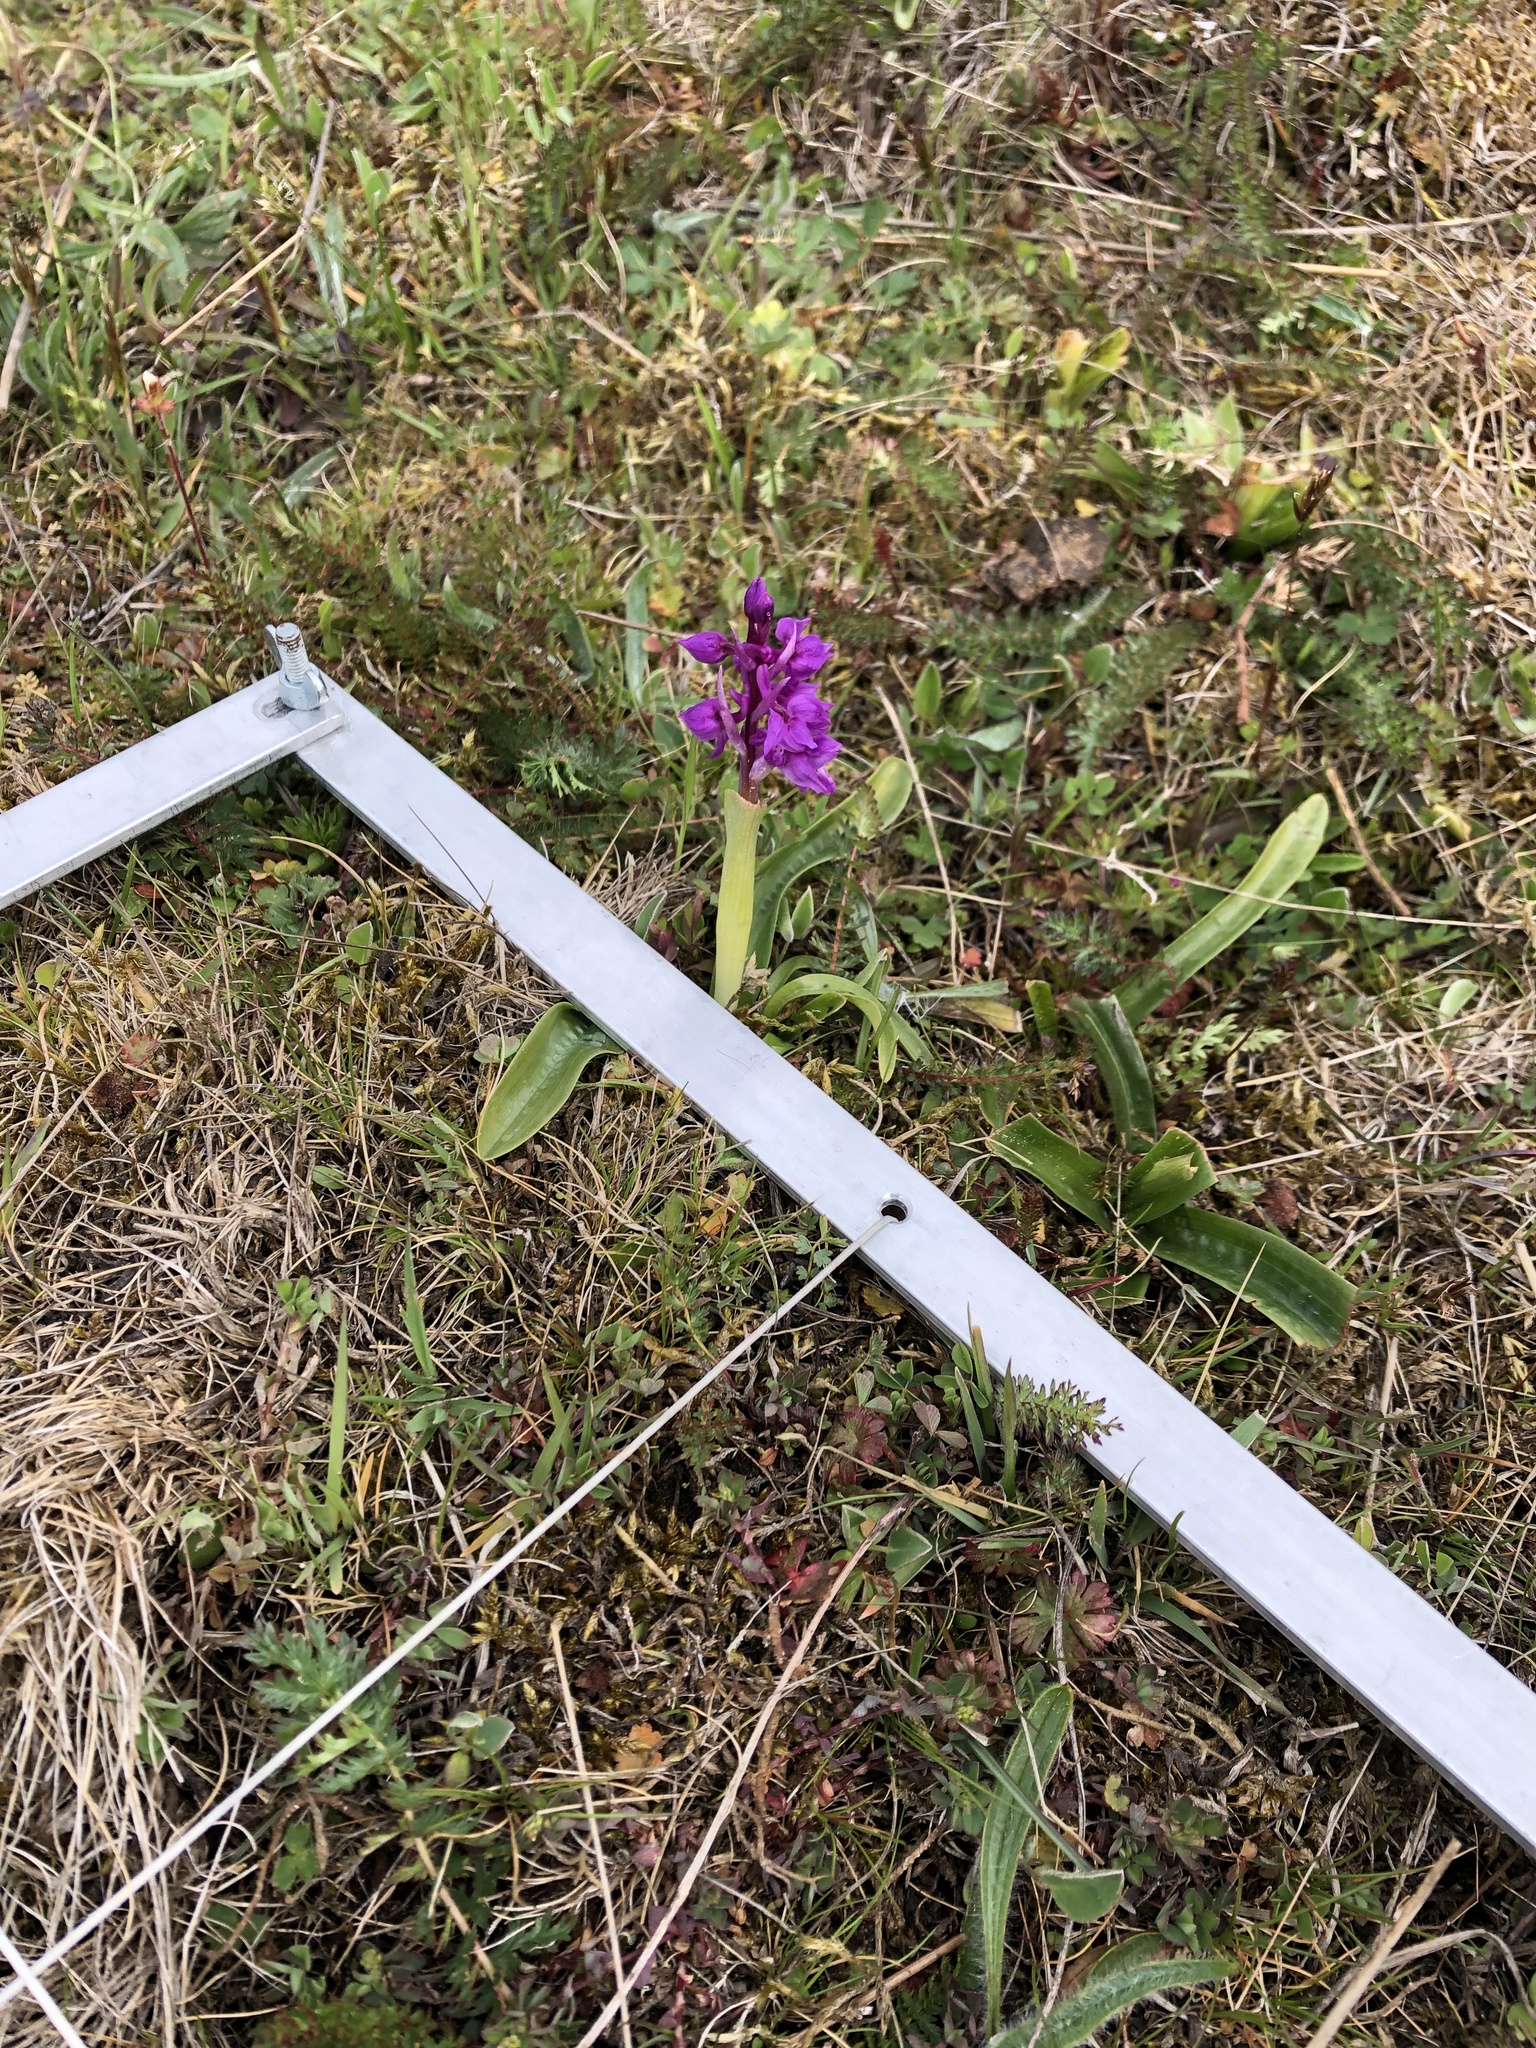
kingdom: Plantae
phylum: Tracheophyta
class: Liliopsida
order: Asparagales
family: Orchidaceae
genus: Orchis
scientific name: Orchis mascula
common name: Early-purple orchid
